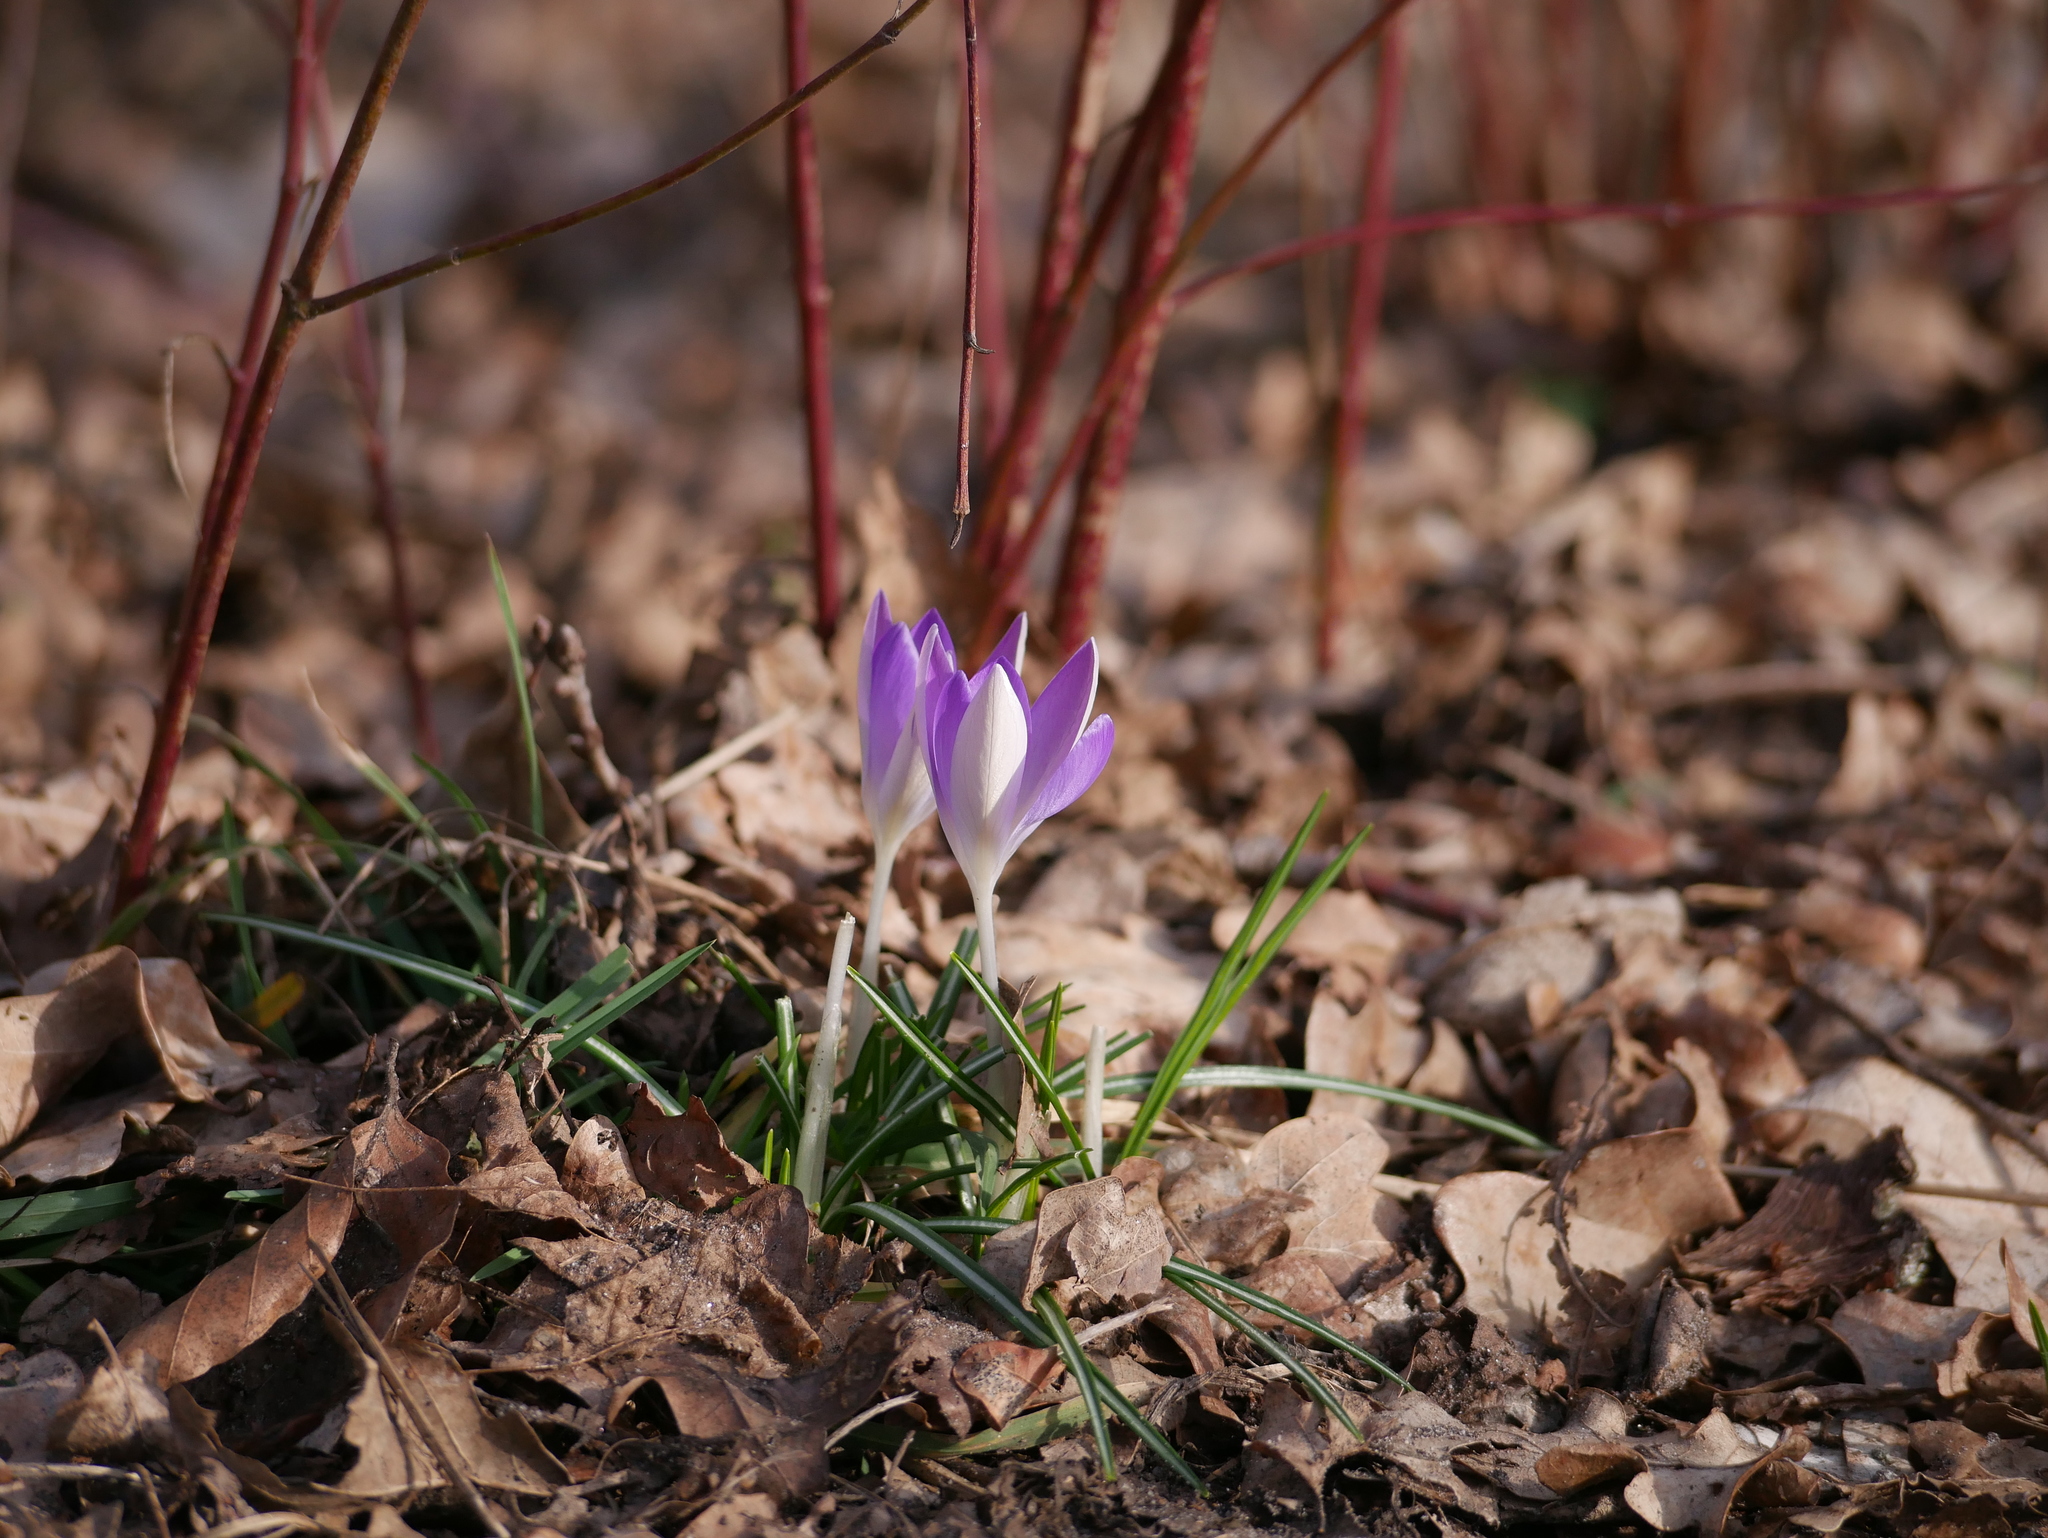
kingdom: Plantae
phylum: Tracheophyta
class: Liliopsida
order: Asparagales
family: Iridaceae
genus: Crocus
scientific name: Crocus tommasinianus
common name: Early crocus
